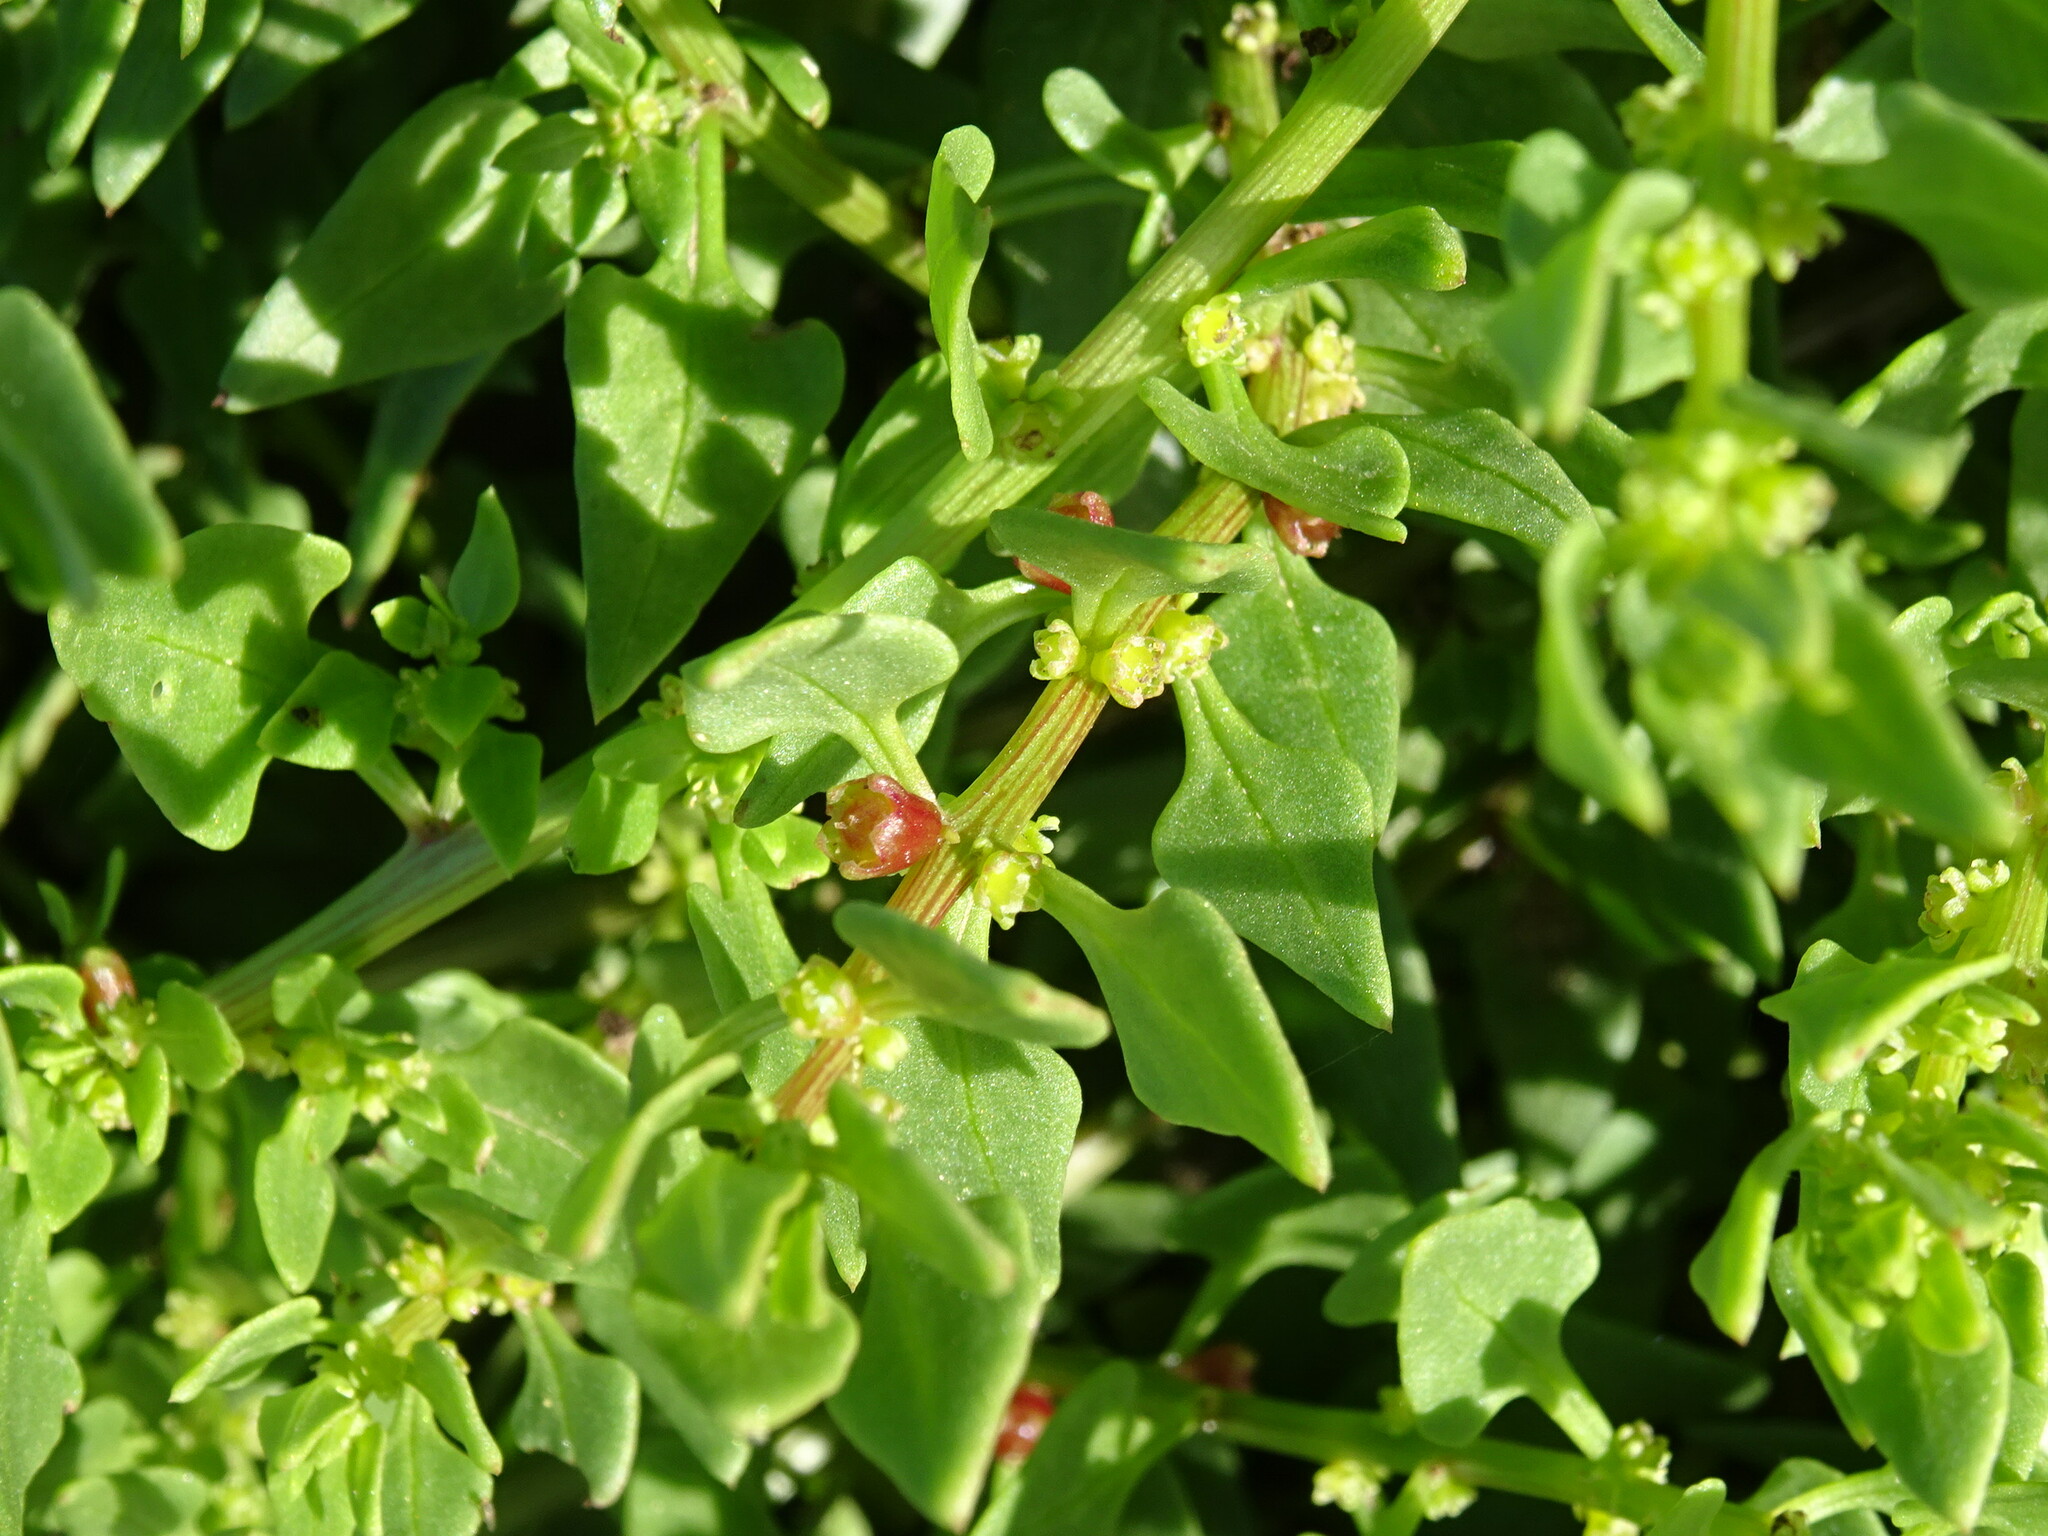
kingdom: Plantae
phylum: Tracheophyta
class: Magnoliopsida
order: Caryophyllales
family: Amaranthaceae
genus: Patellifolia
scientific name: Patellifolia procumbens
